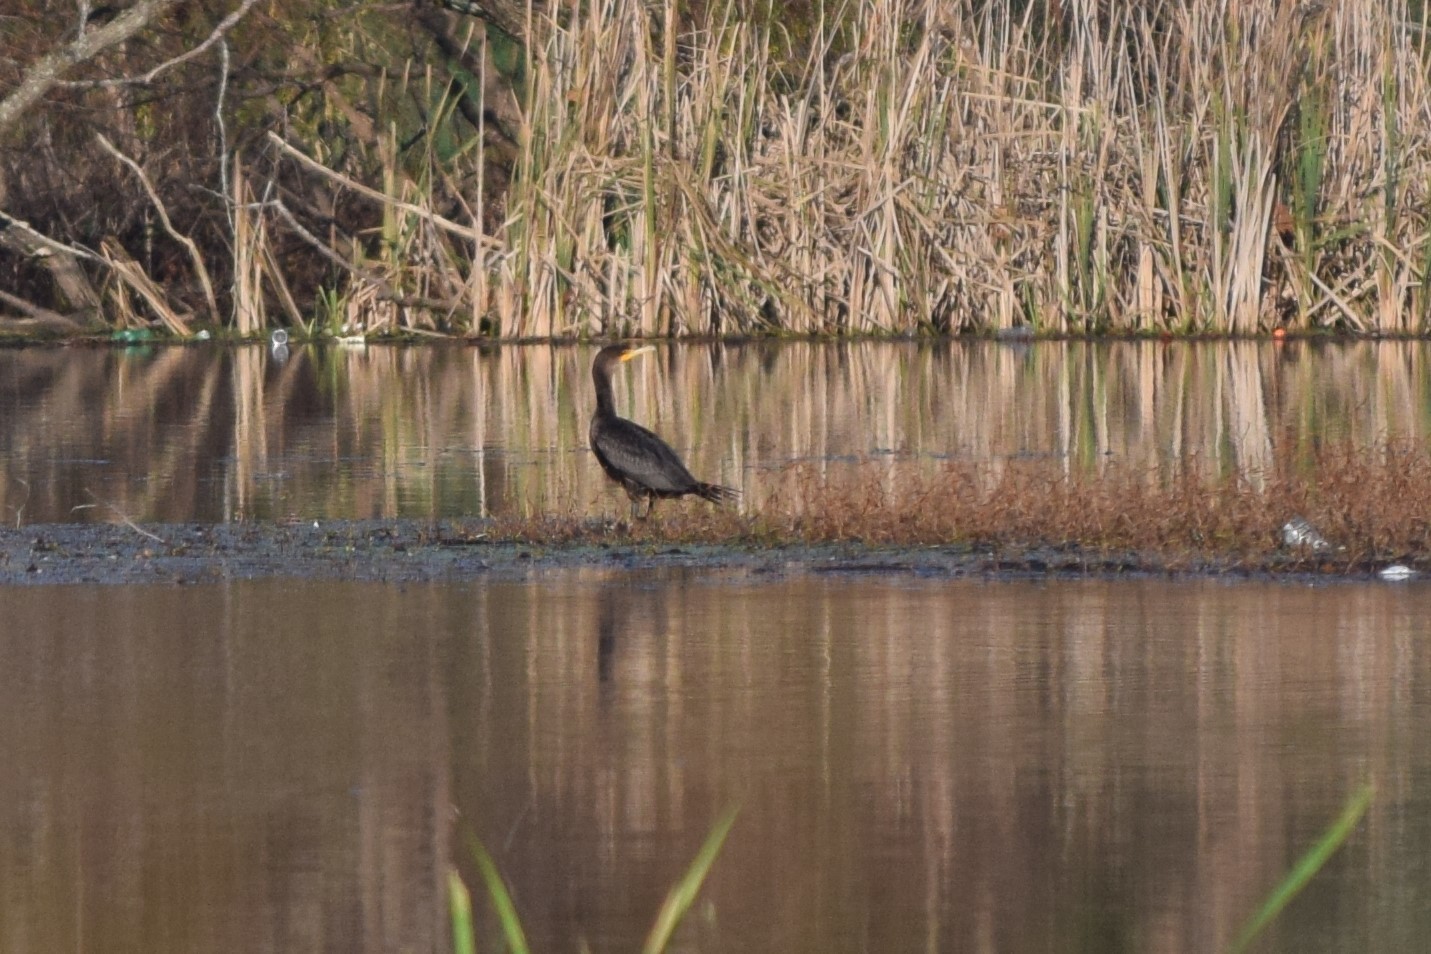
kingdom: Animalia
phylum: Chordata
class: Aves
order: Suliformes
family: Phalacrocoracidae
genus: Phalacrocorax
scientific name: Phalacrocorax auritus
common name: Double-crested cormorant
